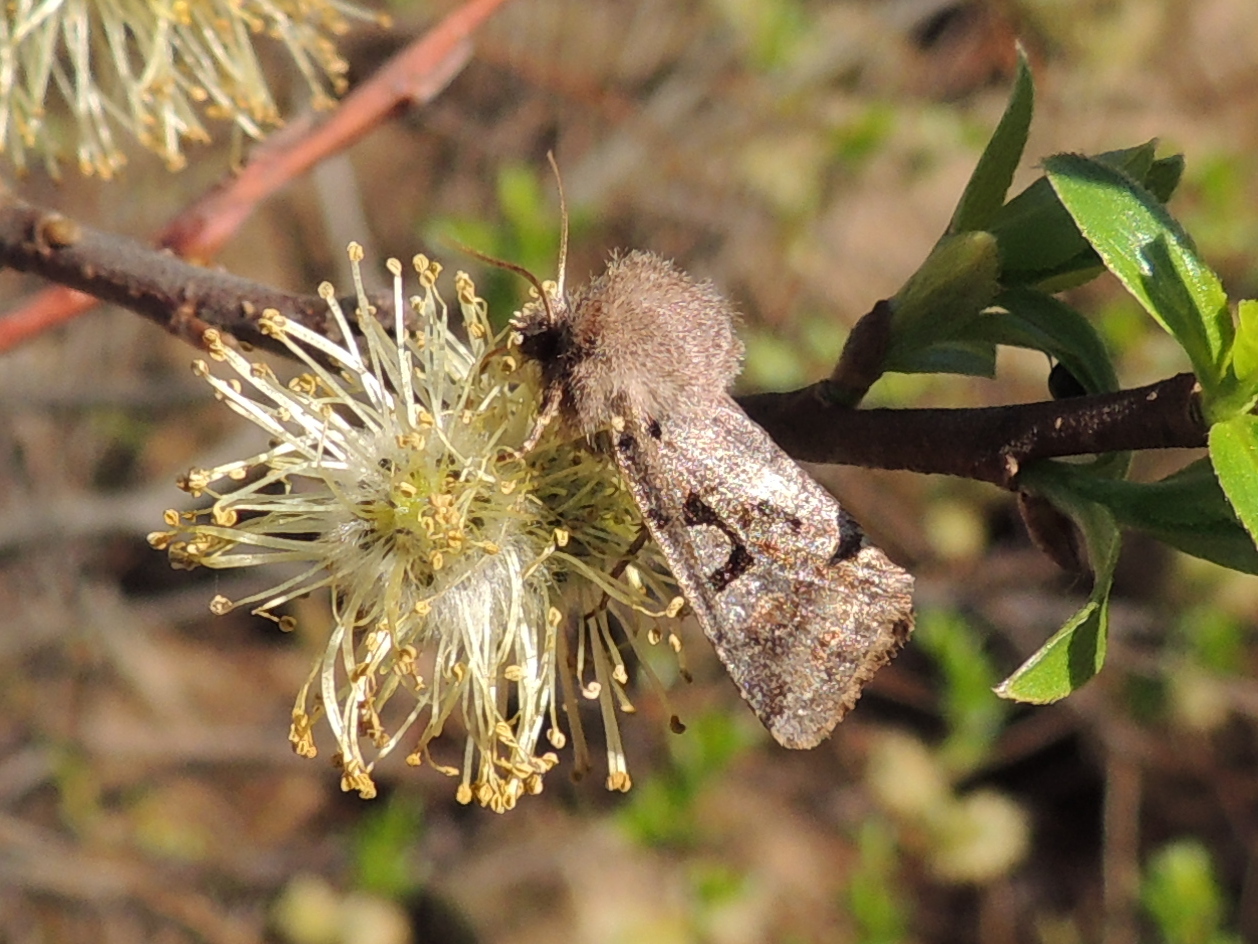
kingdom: Animalia
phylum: Arthropoda
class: Insecta
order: Lepidoptera
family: Noctuidae
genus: Orthosia
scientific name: Orthosia gothica
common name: Hebrew character
